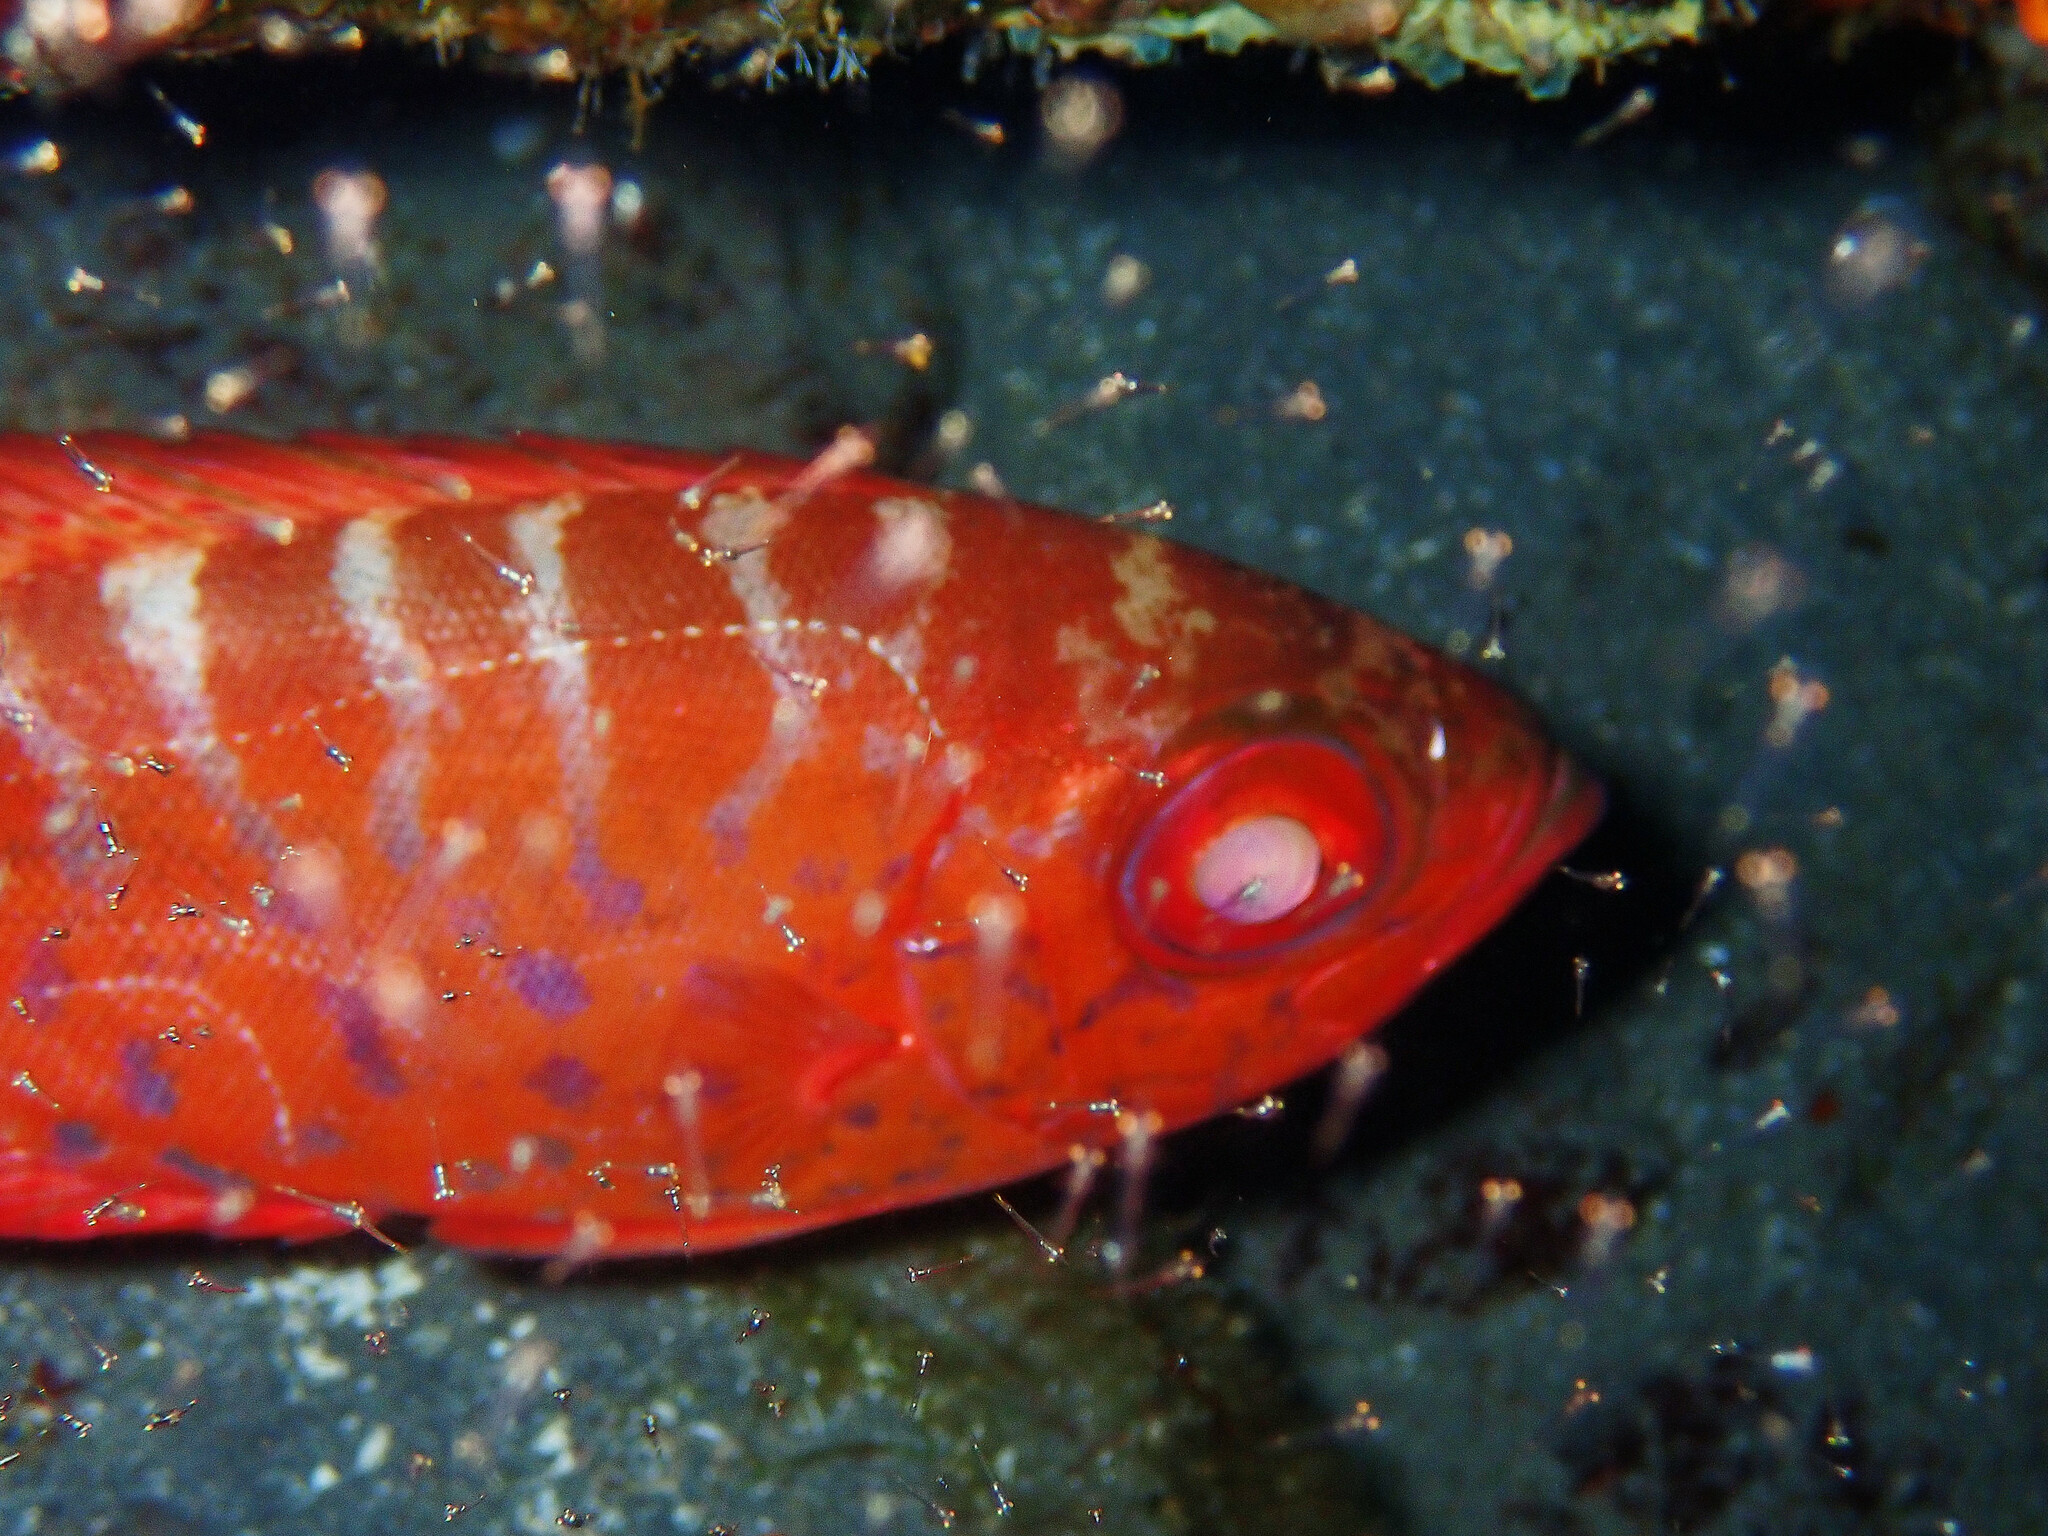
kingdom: Animalia
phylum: Chordata
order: Perciformes
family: Priacanthidae
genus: Heteropriacanthus
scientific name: Heteropriacanthus cruentatus
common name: Glasseye
